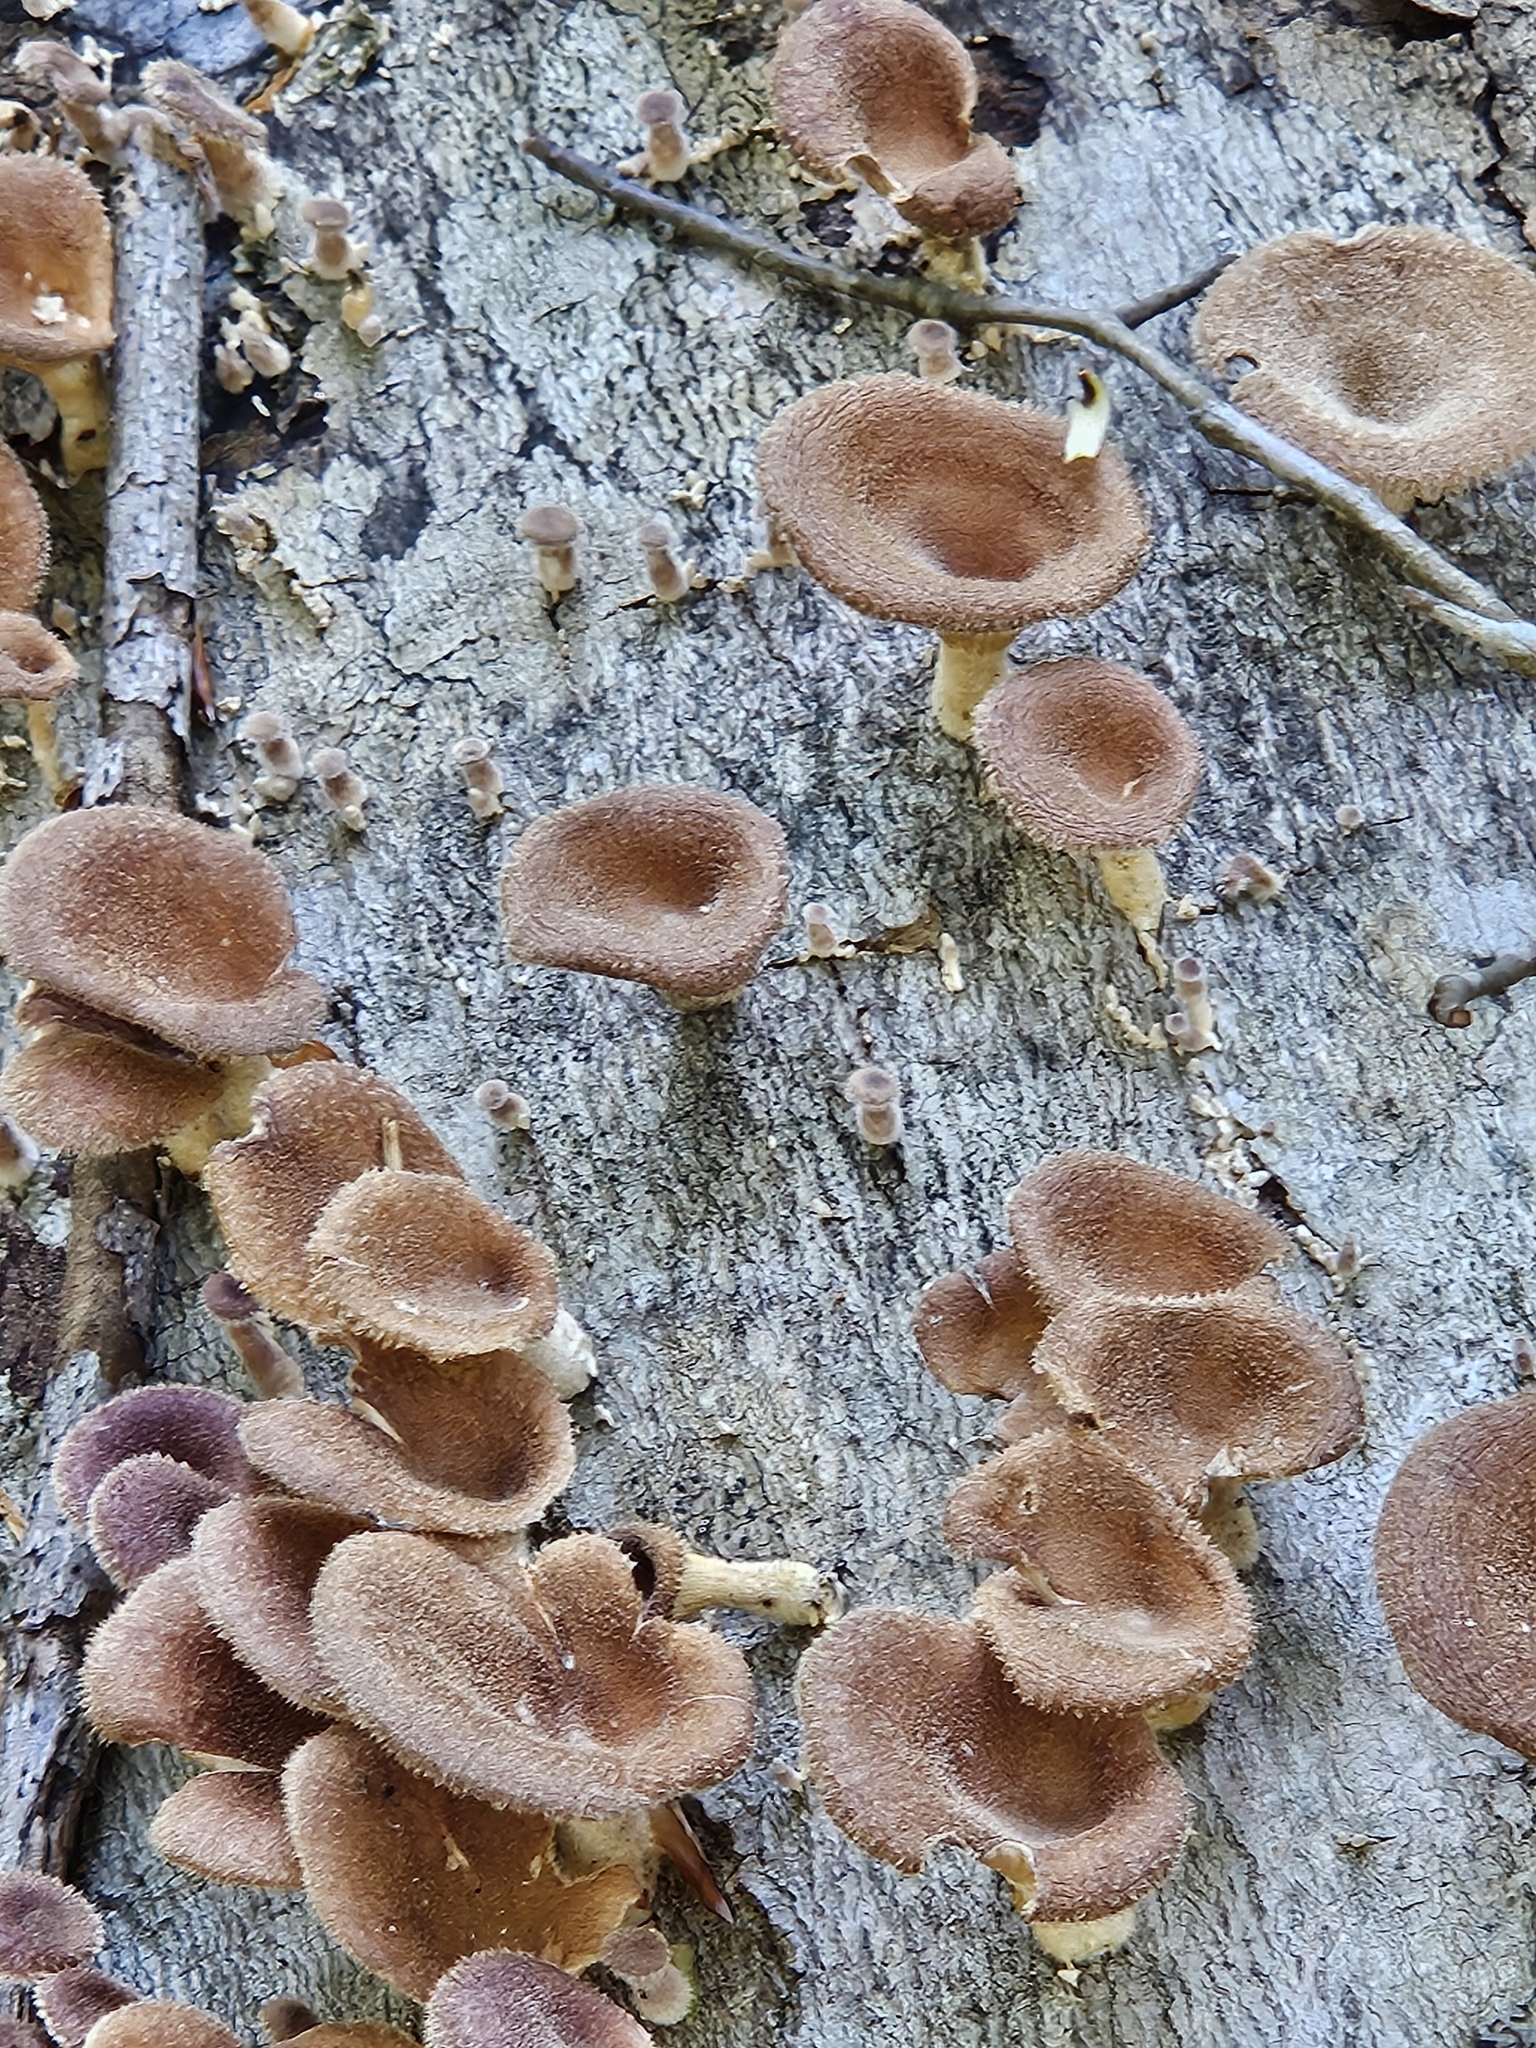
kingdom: Fungi
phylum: Basidiomycota
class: Agaricomycetes
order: Polyporales
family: Panaceae
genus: Panus
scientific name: Panus neostrigosus
